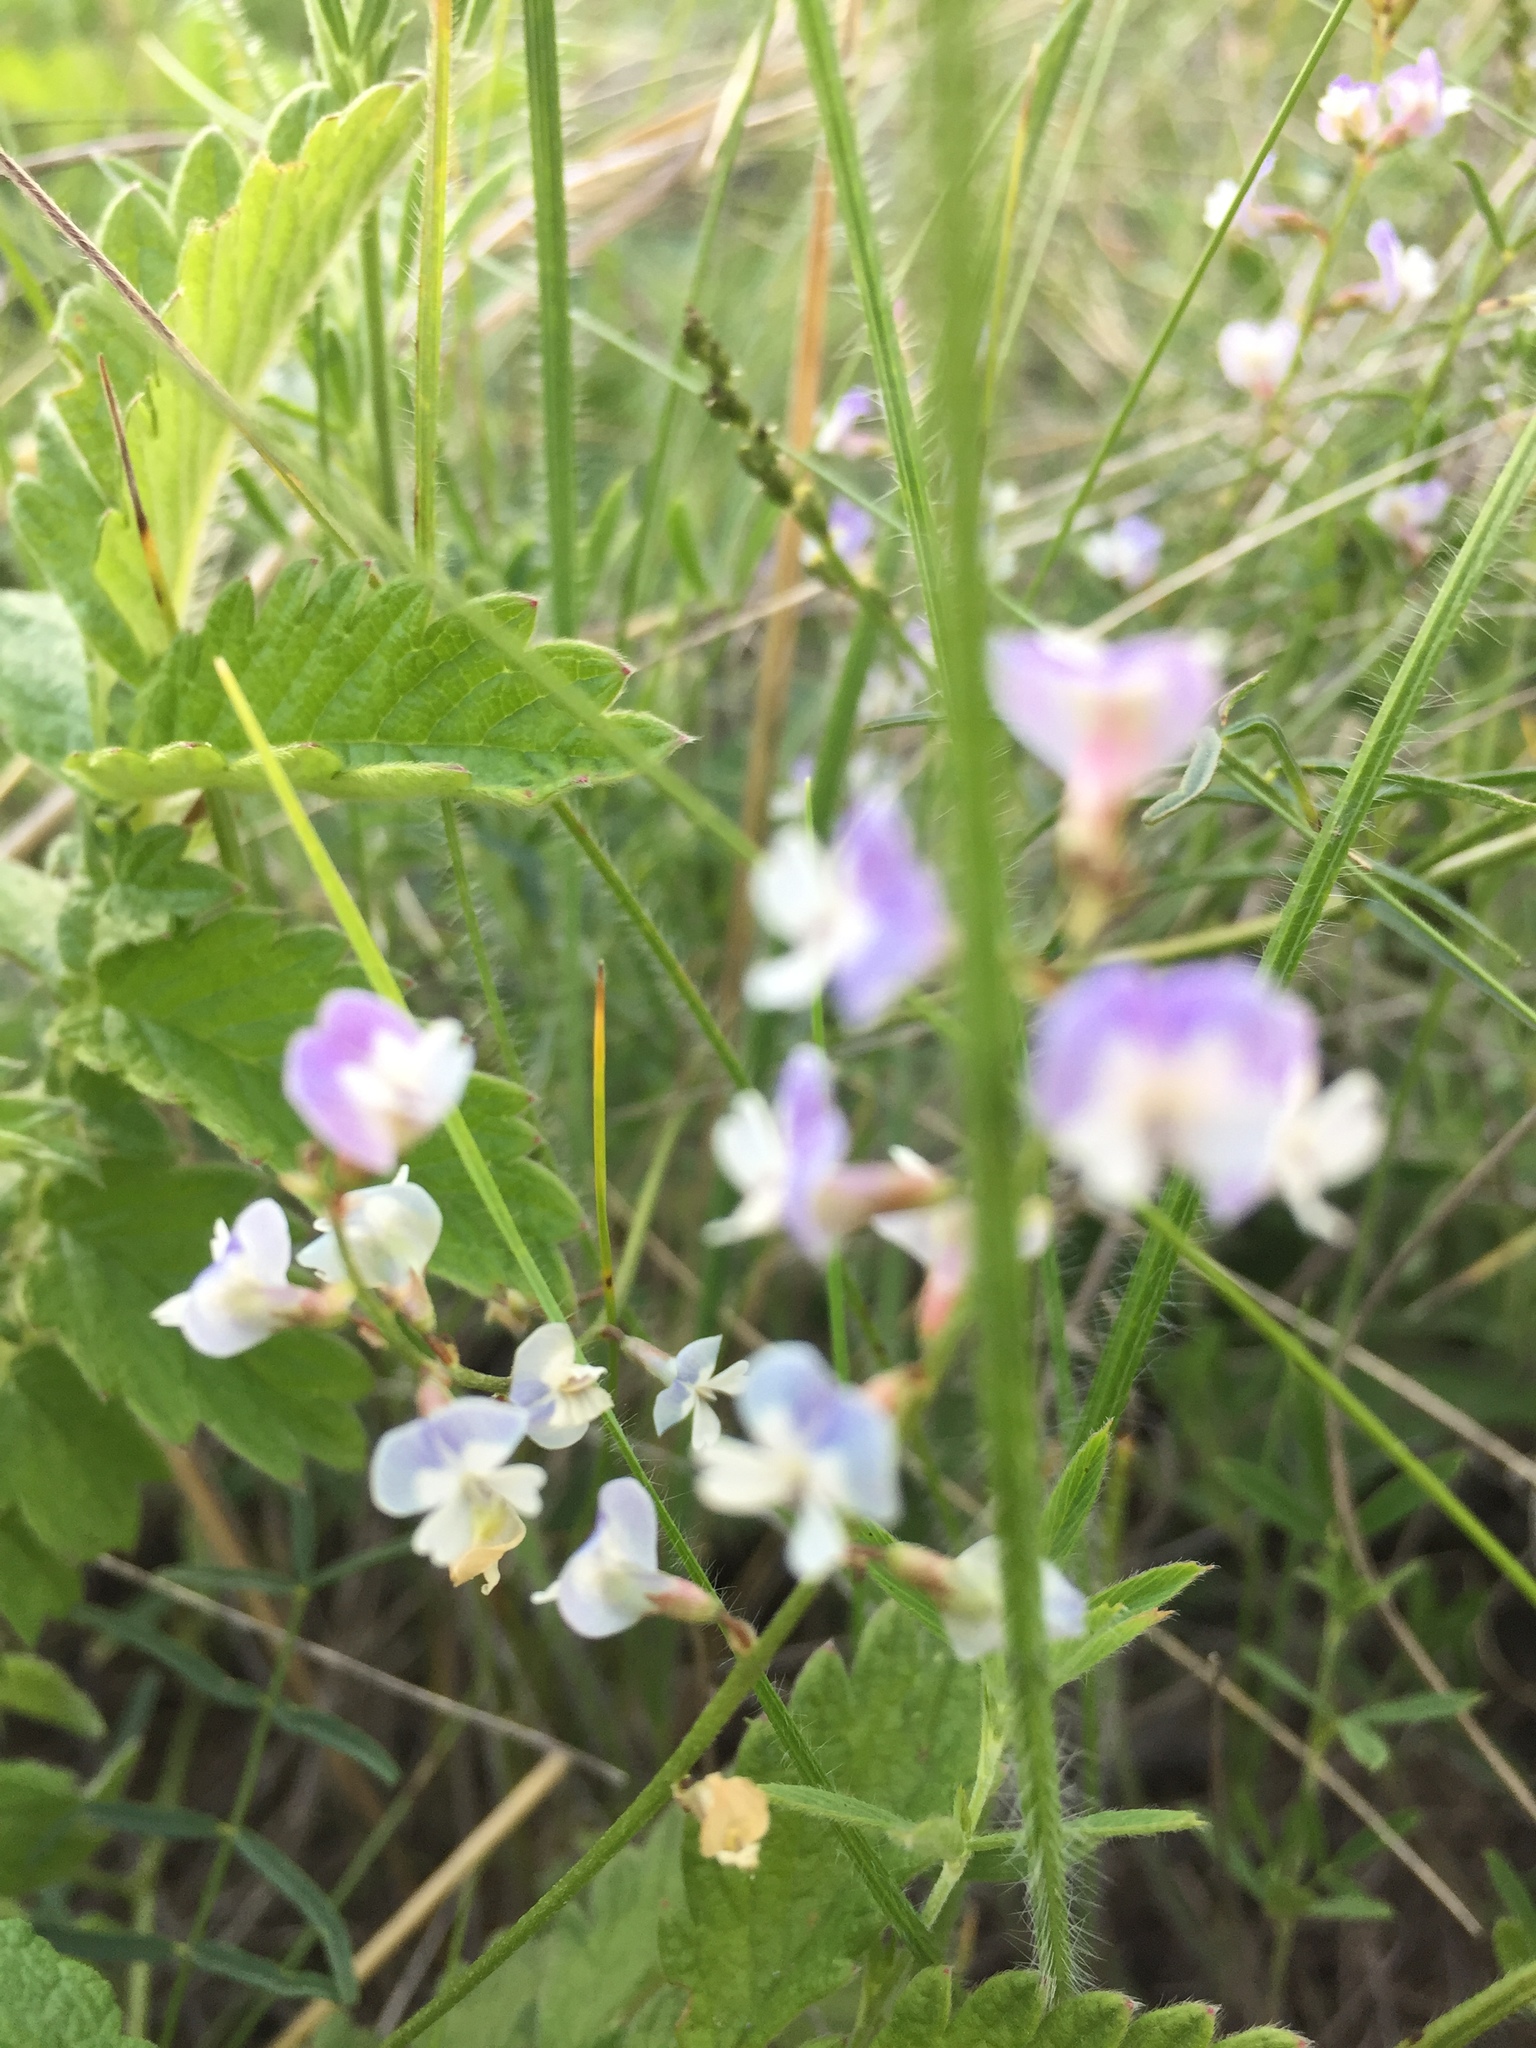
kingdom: Plantae
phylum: Tracheophyta
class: Magnoliopsida
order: Fabales
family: Fabaceae
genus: Astragalus
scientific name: Astragalus austriacus
